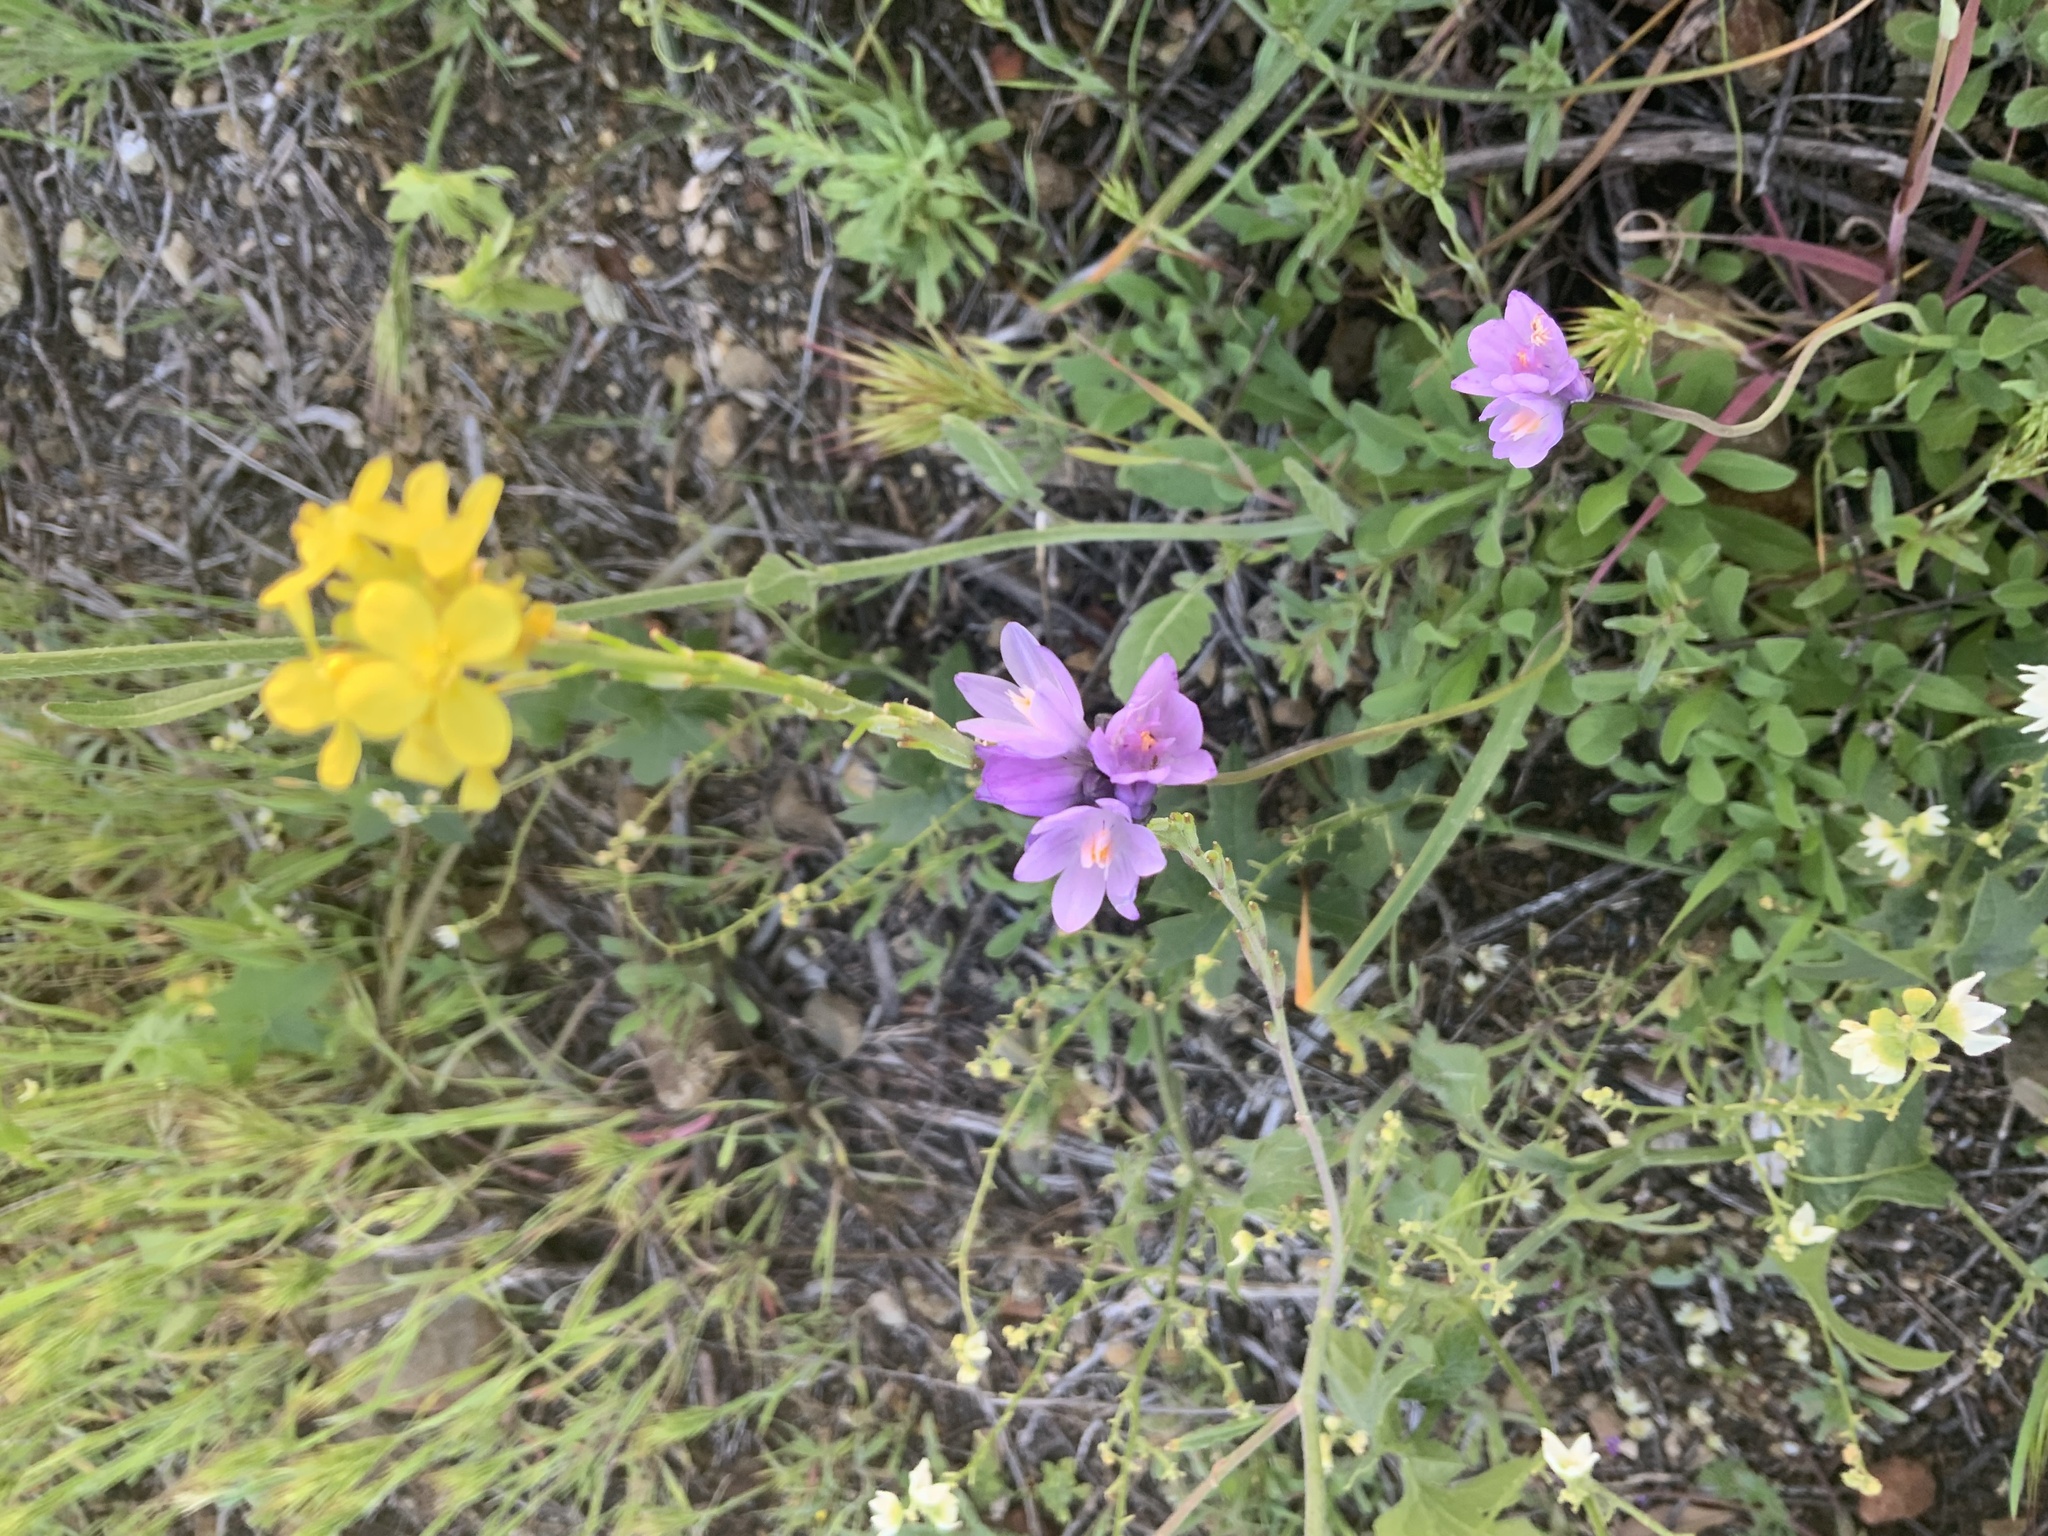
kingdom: Plantae
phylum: Tracheophyta
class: Liliopsida
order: Asparagales
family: Asparagaceae
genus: Dipterostemon
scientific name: Dipterostemon capitatus
